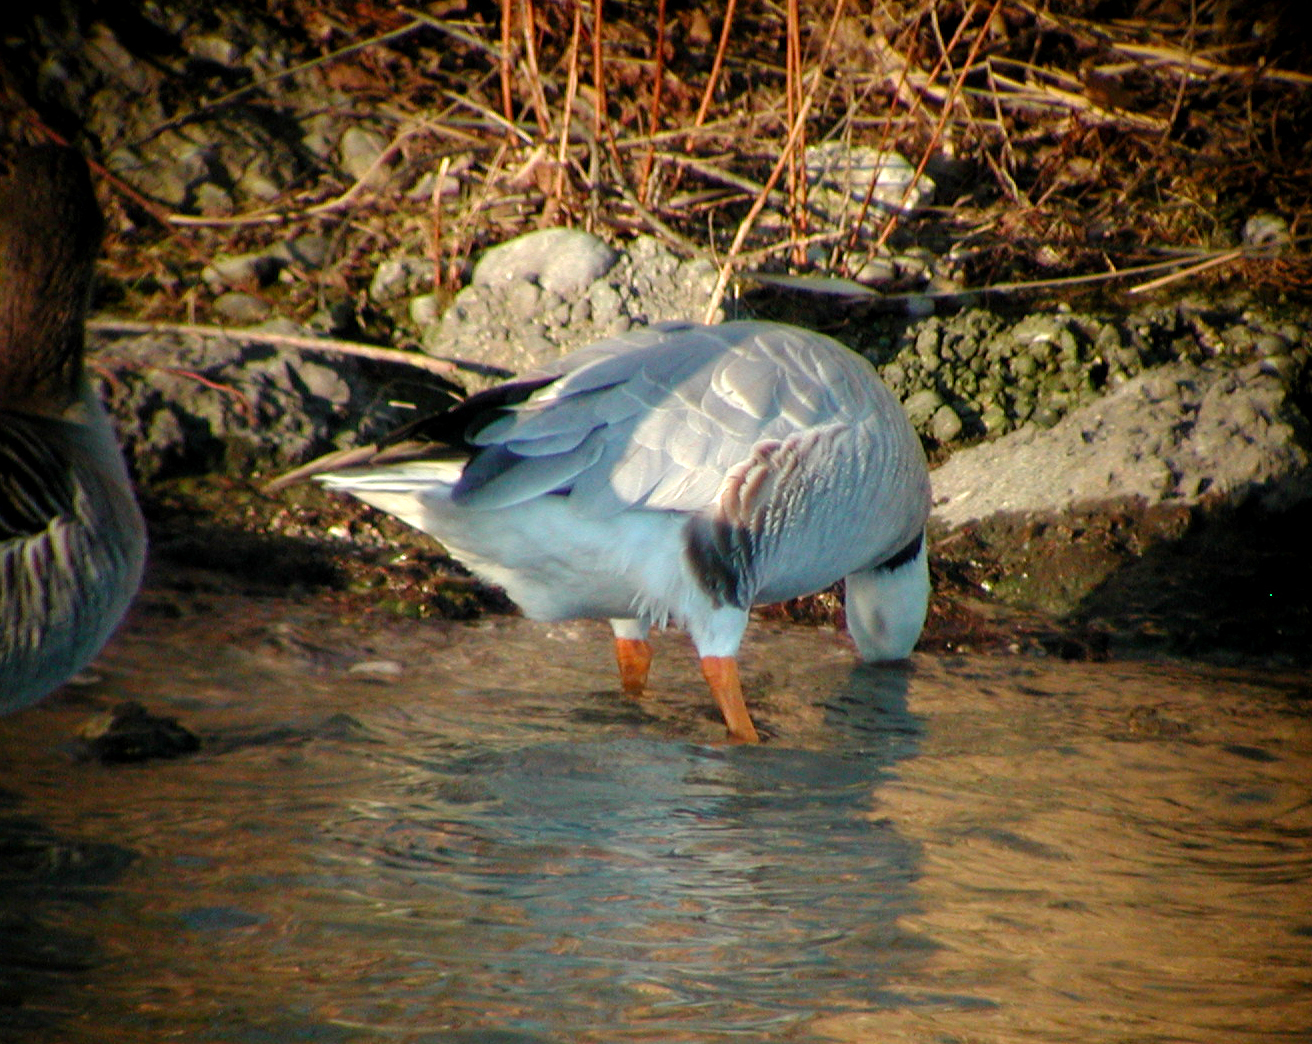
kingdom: Animalia
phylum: Chordata
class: Aves
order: Anseriformes
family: Anatidae
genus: Anser
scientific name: Anser indicus
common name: Bar-headed goose
